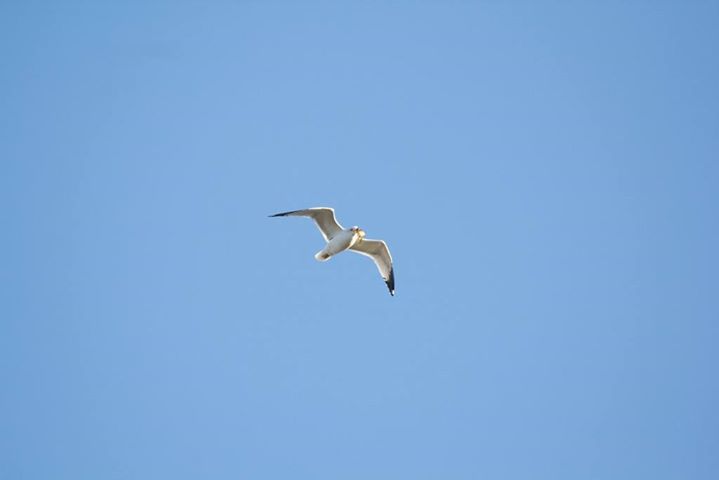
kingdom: Animalia
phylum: Chordata
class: Aves
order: Charadriiformes
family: Laridae
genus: Larus
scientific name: Larus delawarensis
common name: Ring-billed gull
